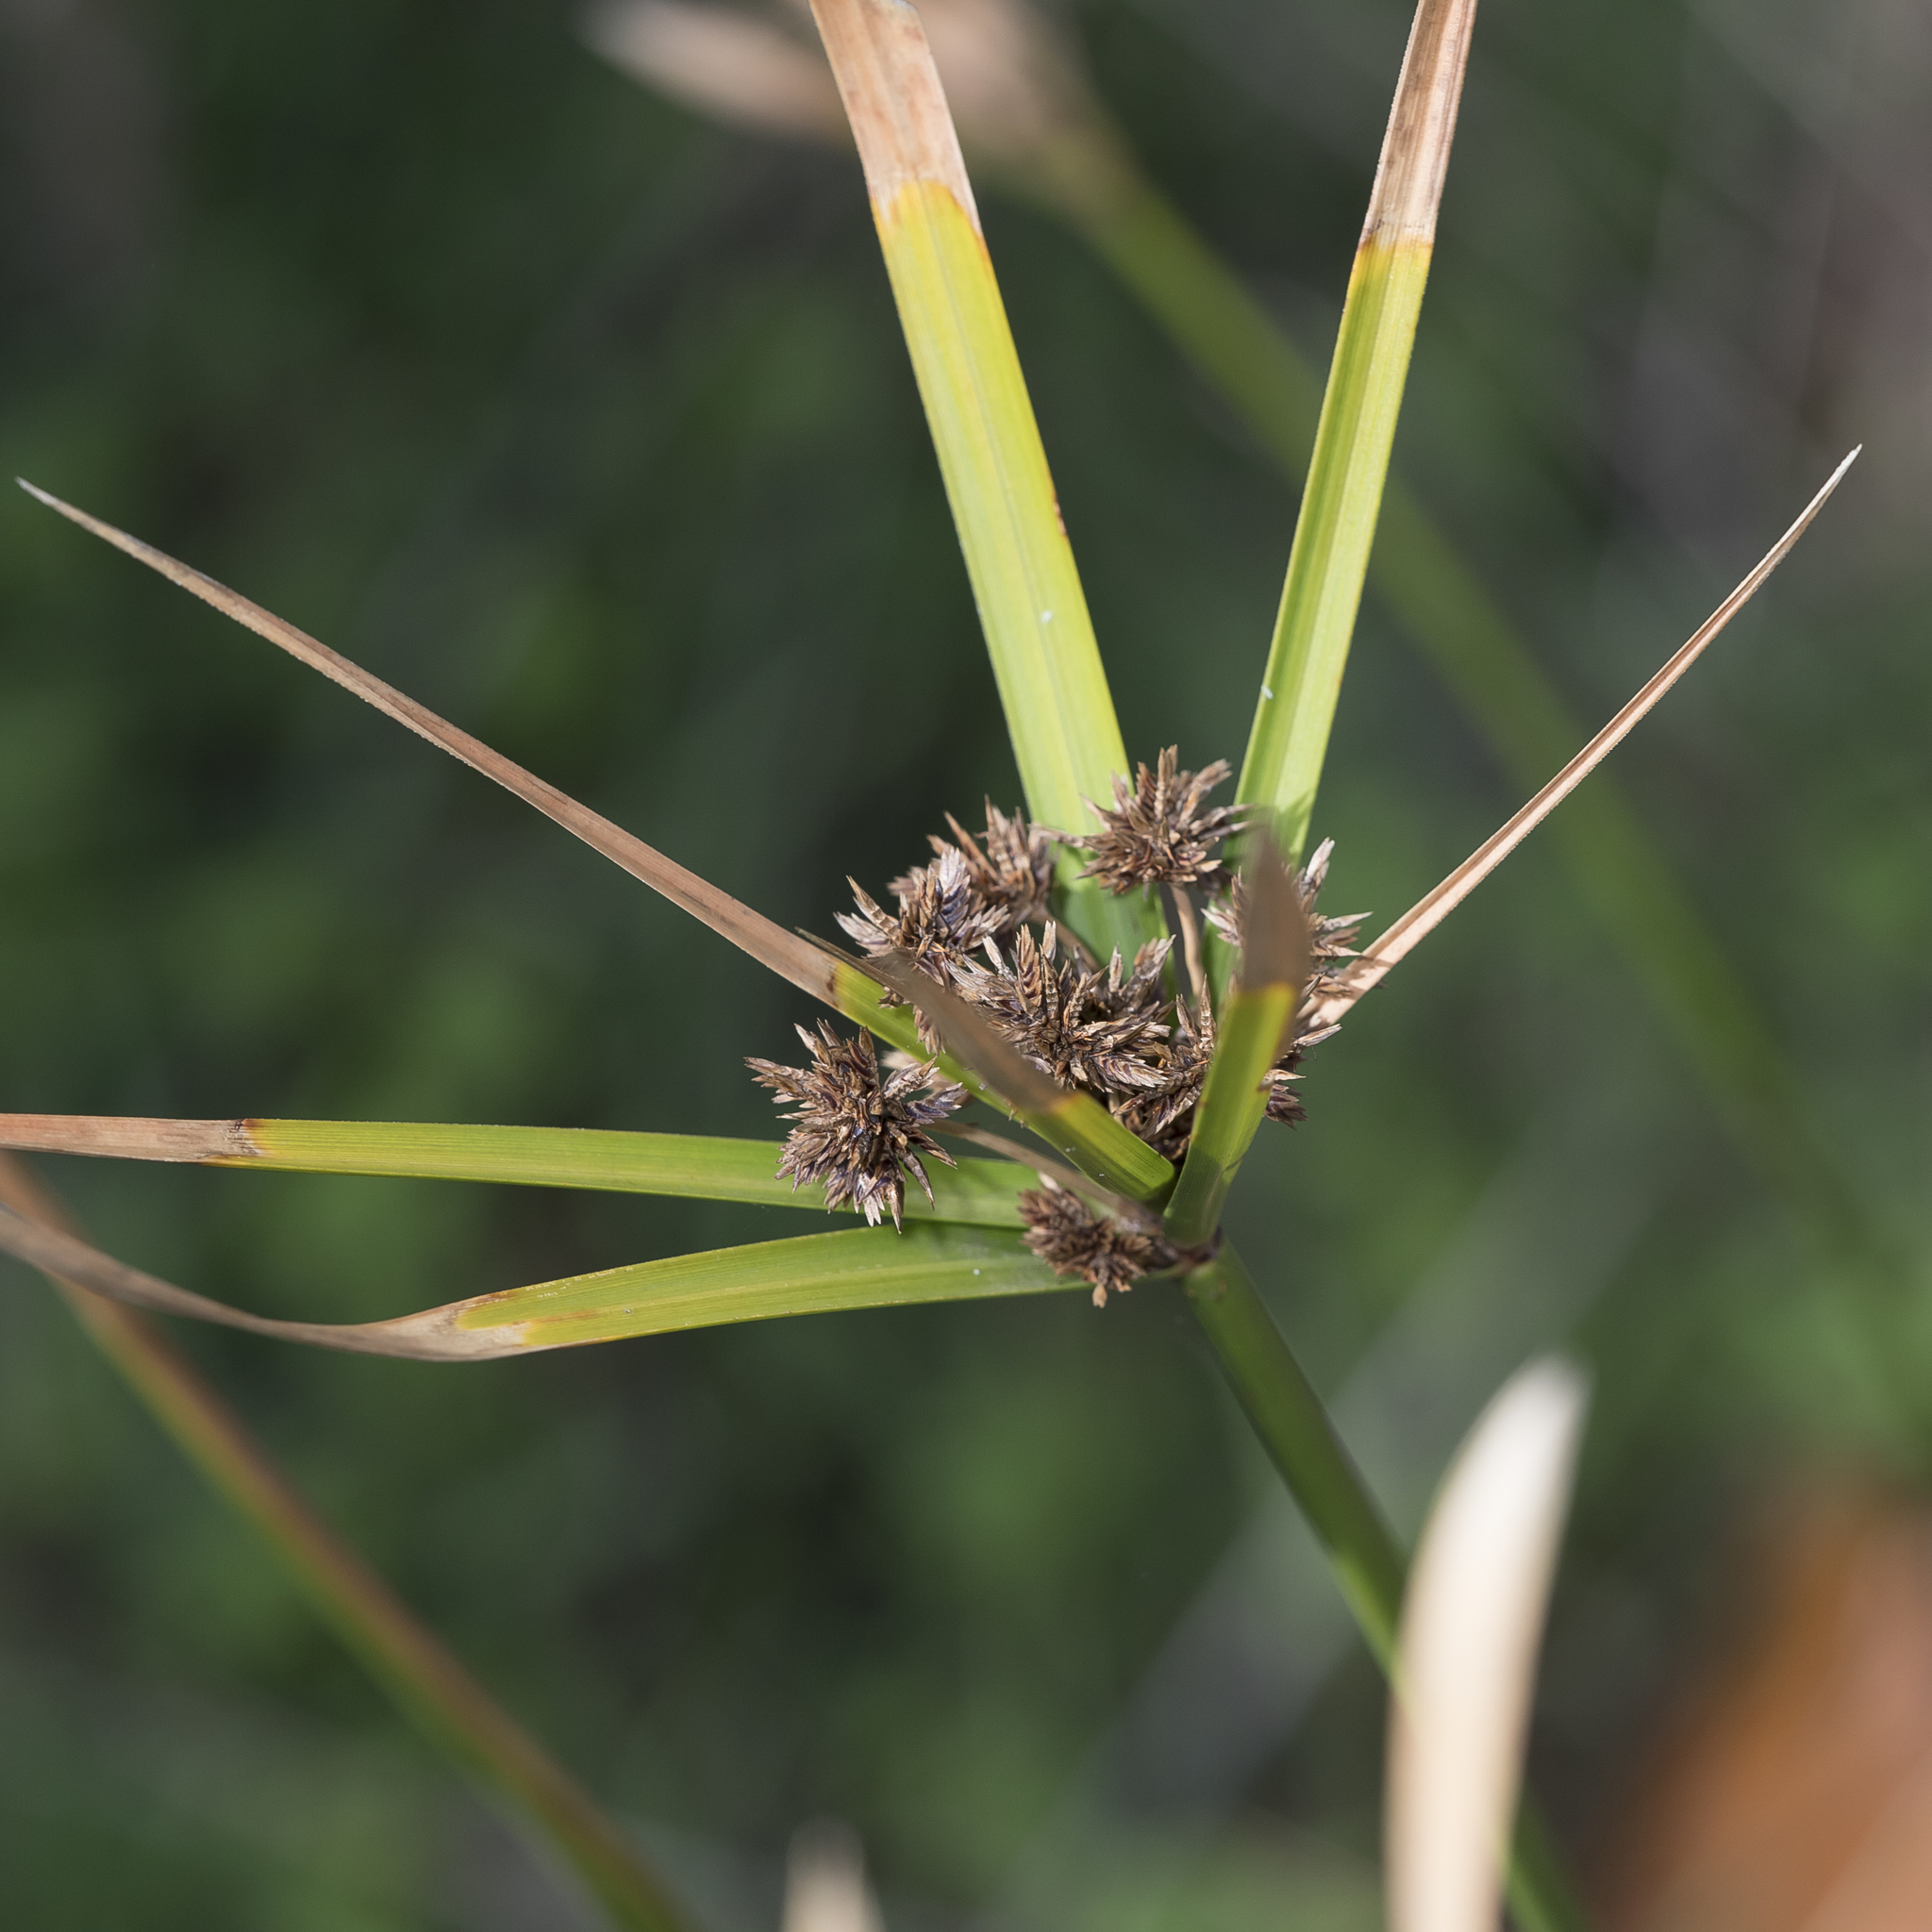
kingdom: Plantae
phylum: Tracheophyta
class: Liliopsida
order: Poales
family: Cyperaceae
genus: Cyperus
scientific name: Cyperus vaginatus
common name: Stiff-leaved flat-sedge
